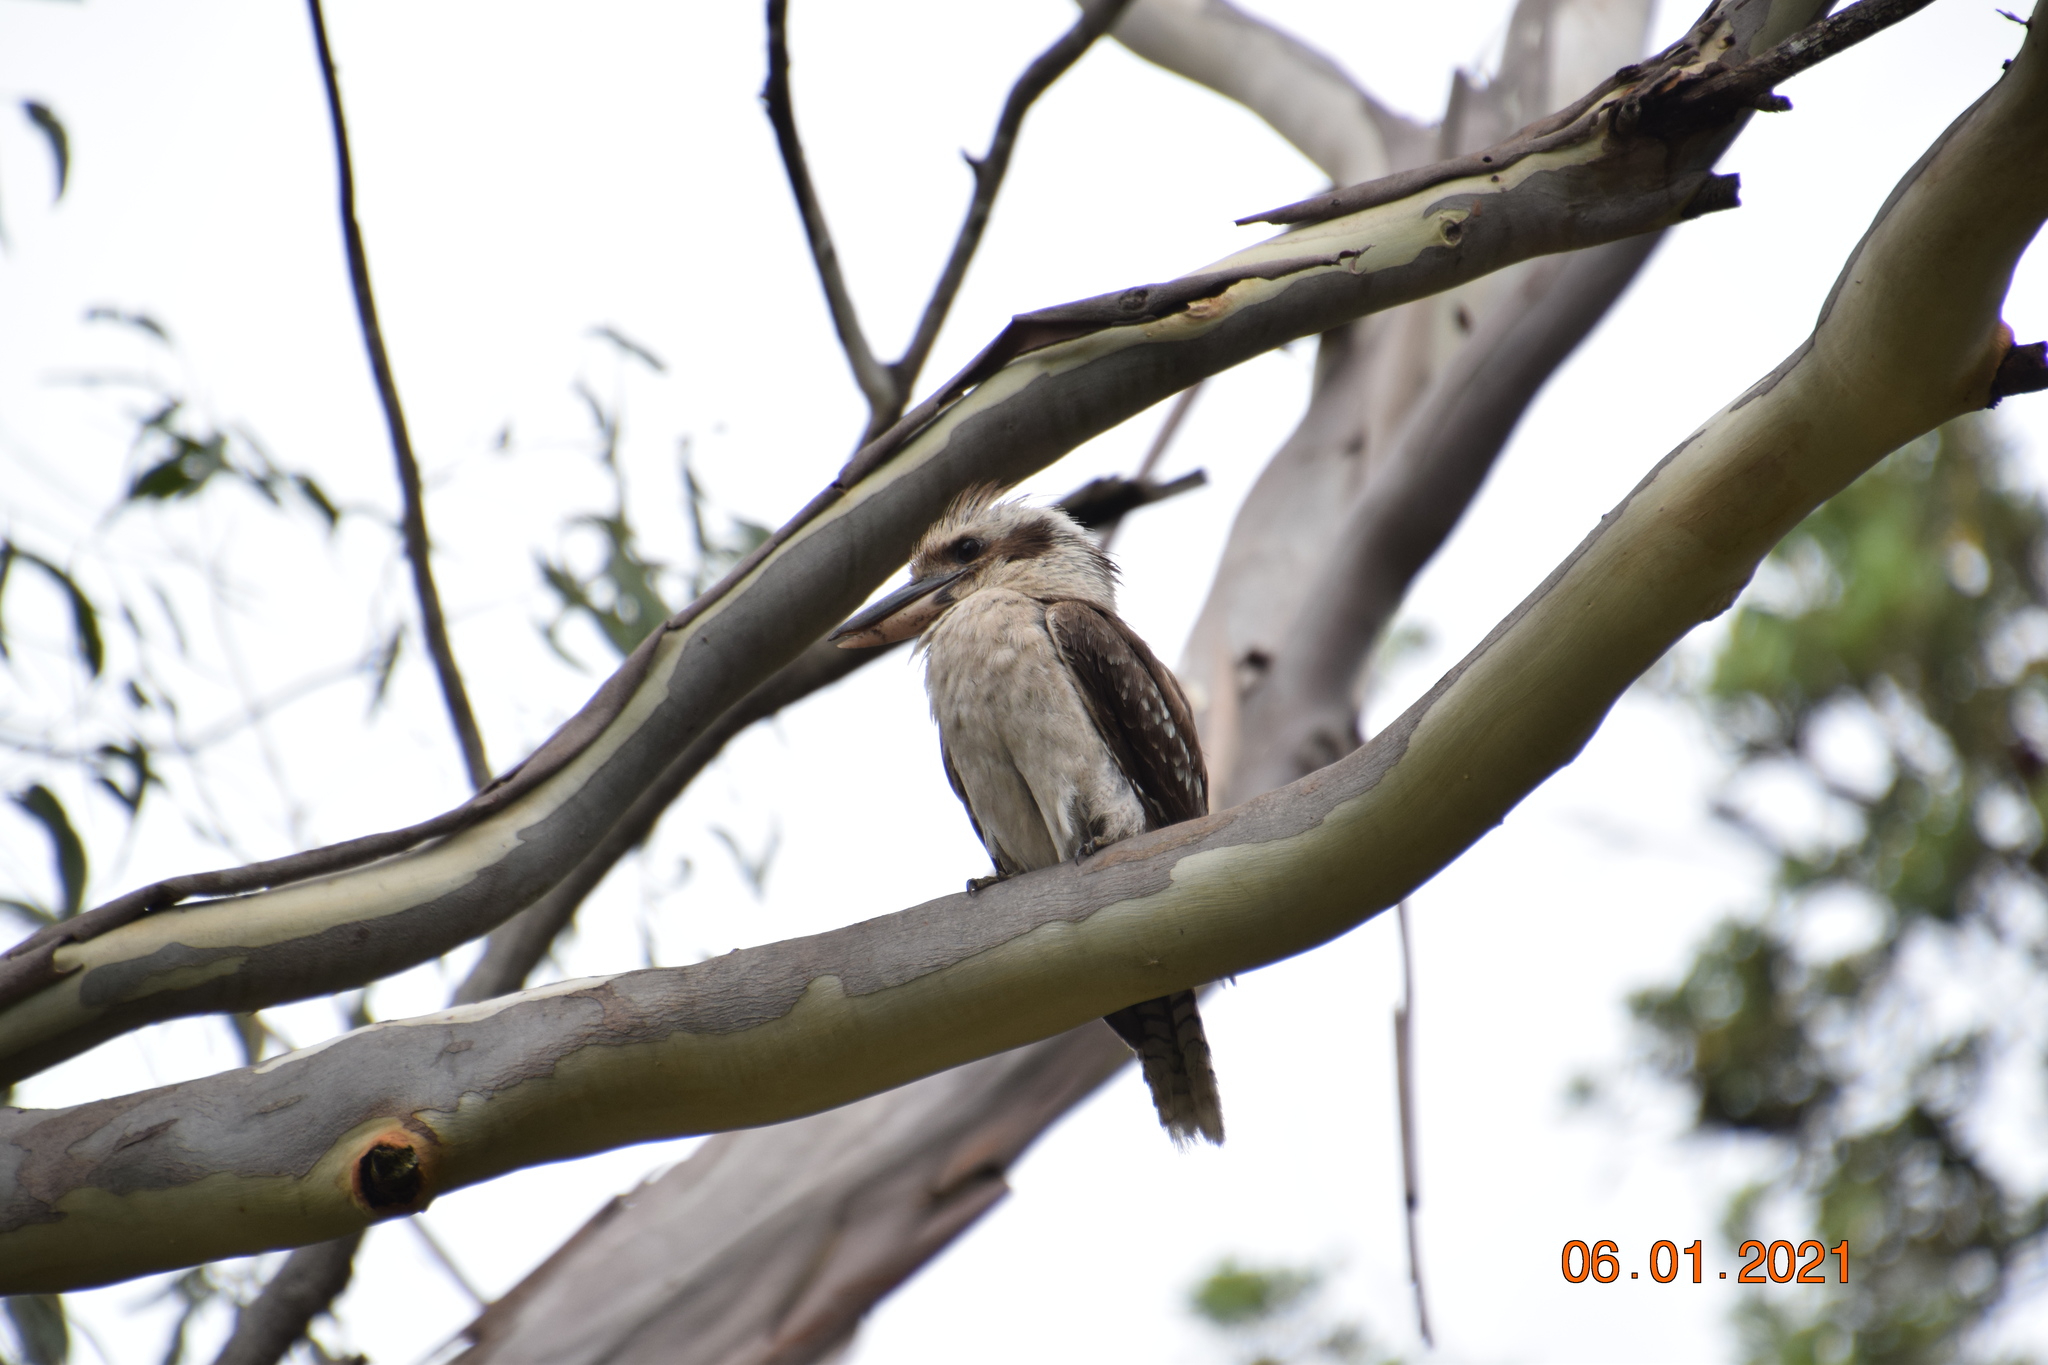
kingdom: Animalia
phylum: Chordata
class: Aves
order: Coraciiformes
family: Alcedinidae
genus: Dacelo
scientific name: Dacelo novaeguineae
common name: Laughing kookaburra
